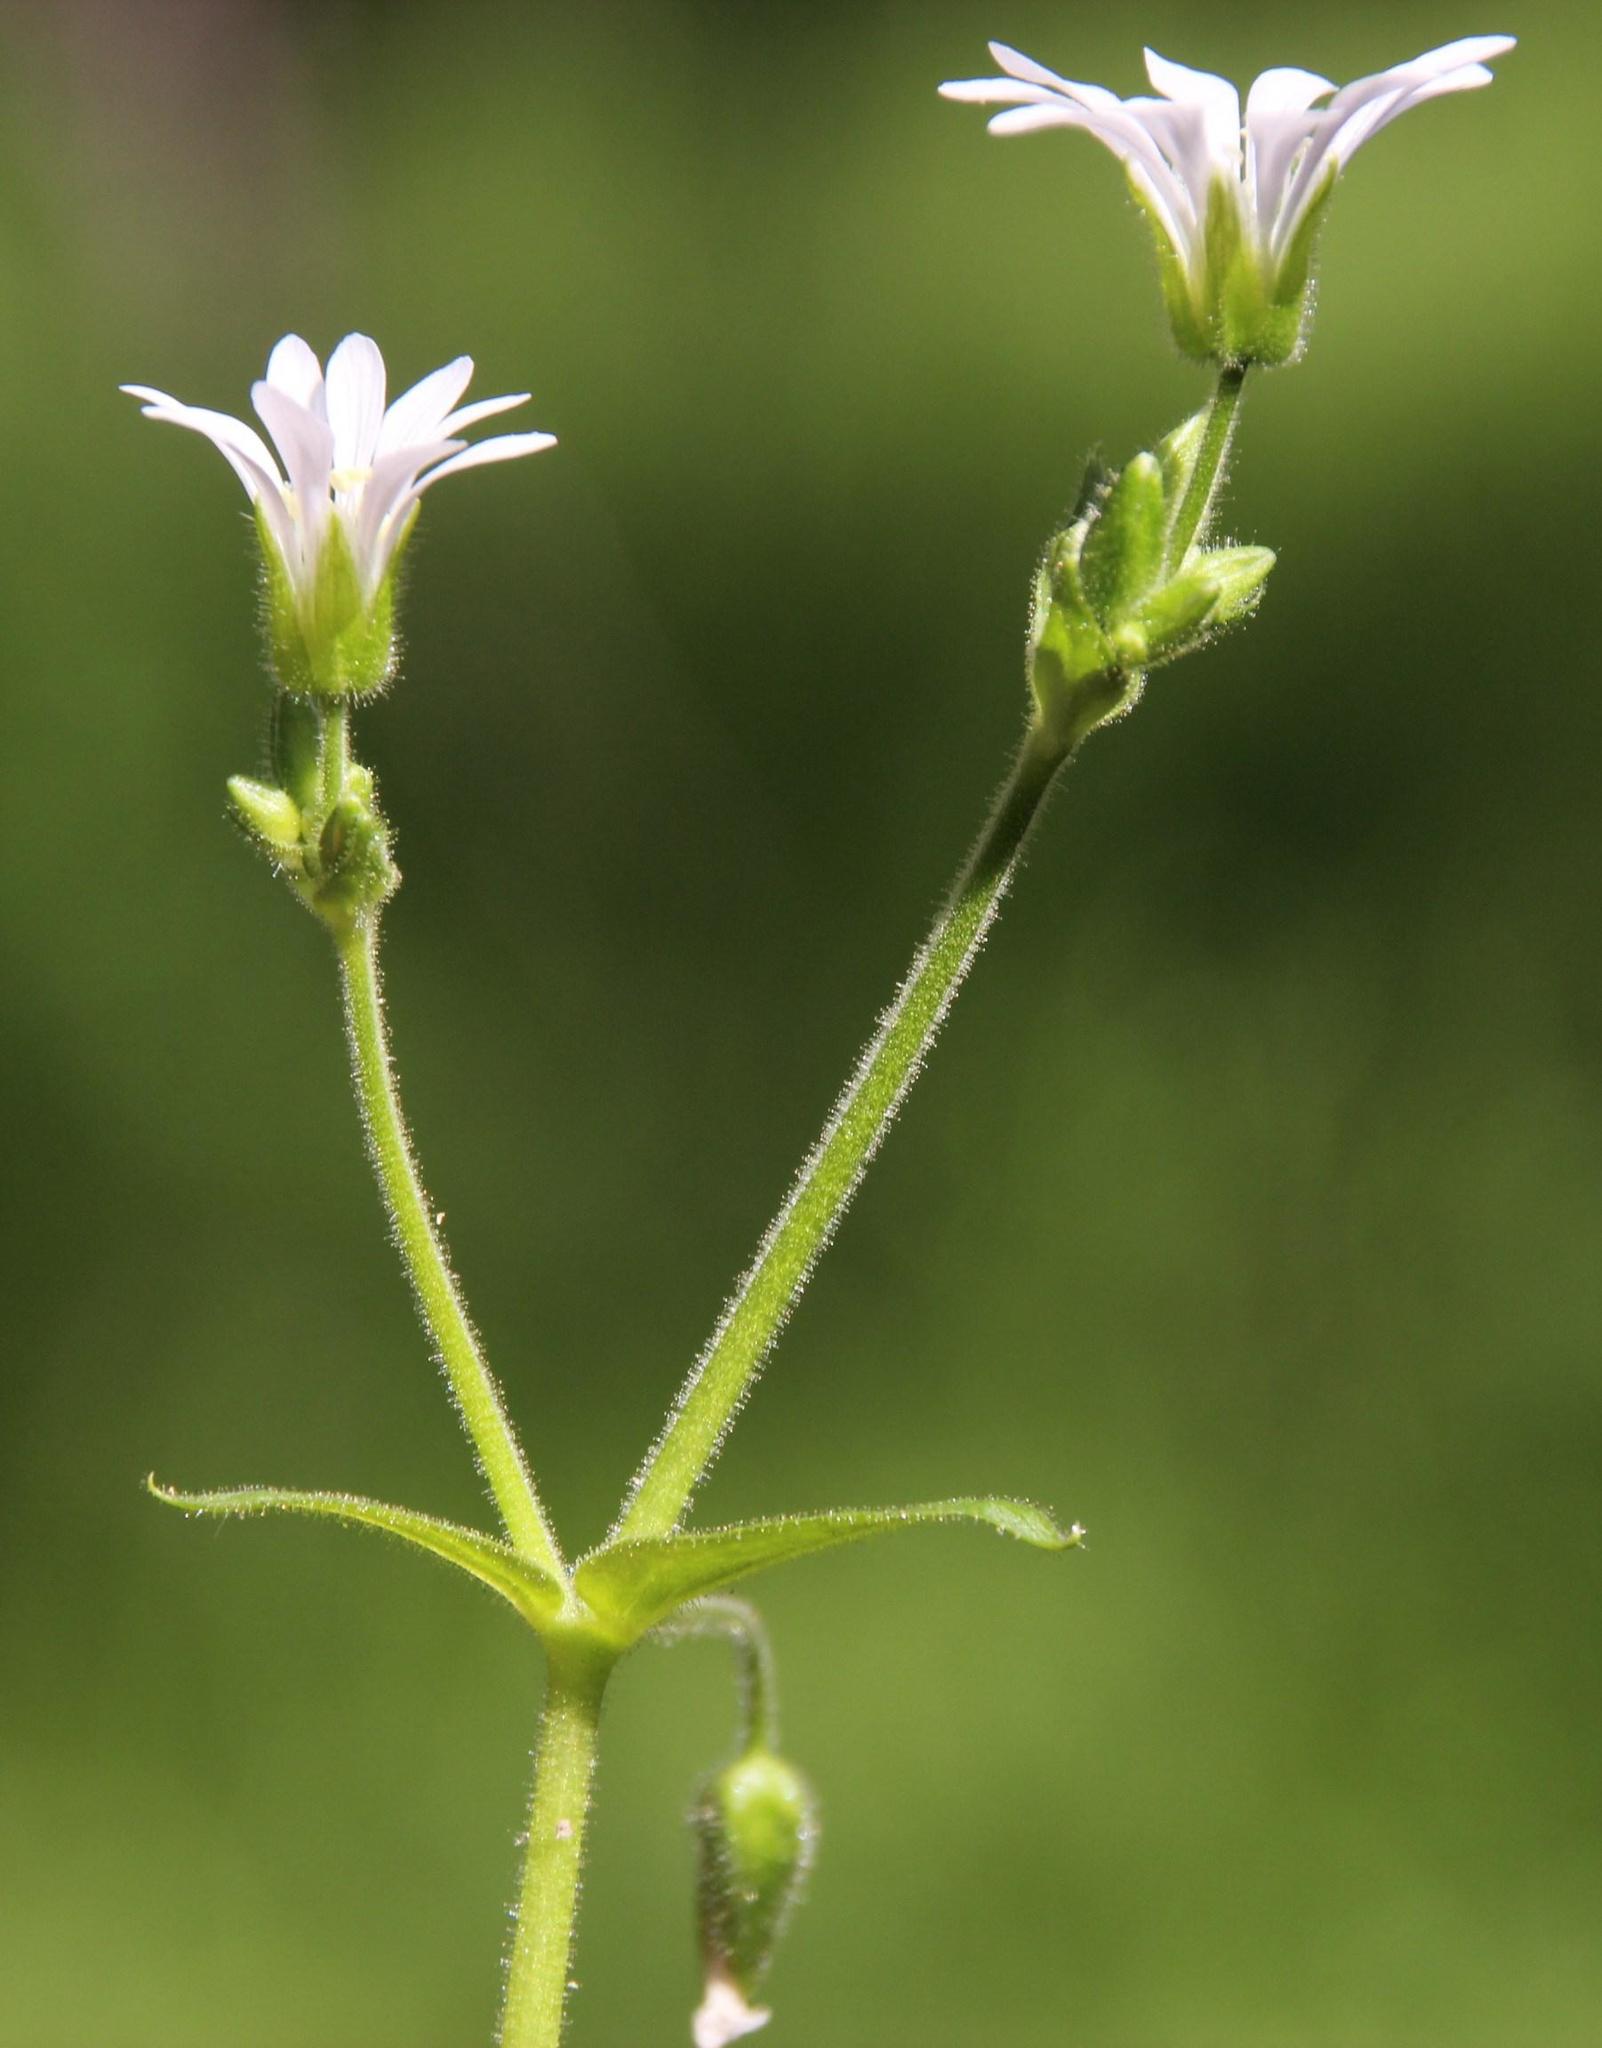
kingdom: Plantae
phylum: Tracheophyta
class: Magnoliopsida
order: Caryophyllales
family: Caryophyllaceae
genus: Stellaria
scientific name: Stellaria chilensis
